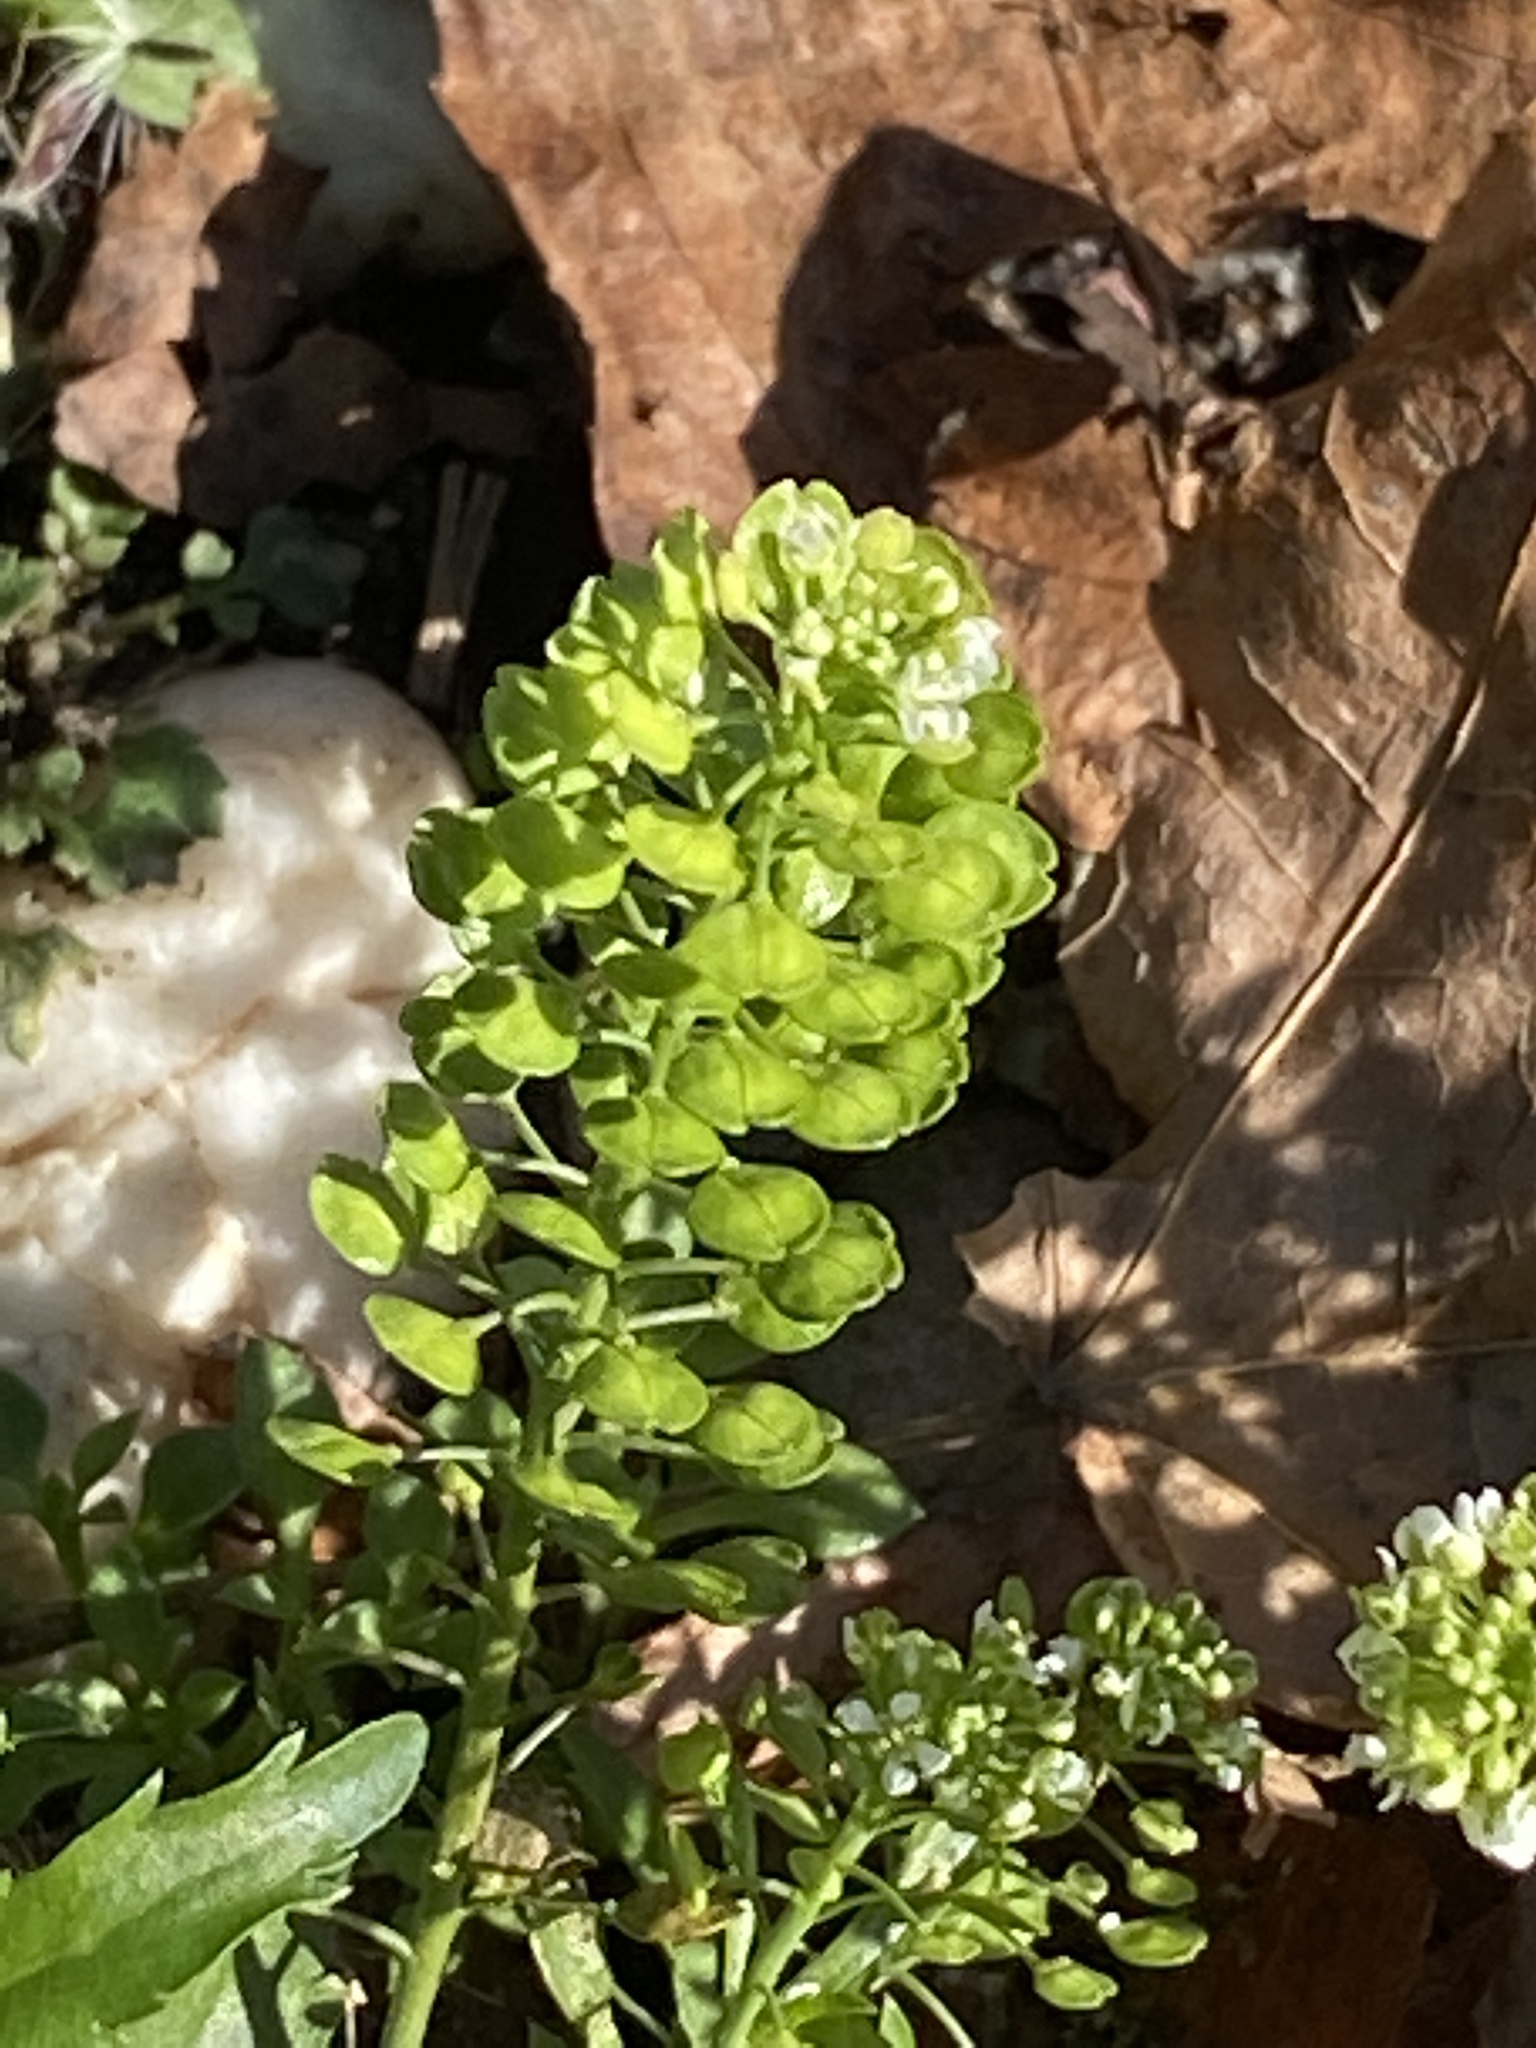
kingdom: Plantae
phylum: Tracheophyta
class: Magnoliopsida
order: Brassicales
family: Brassicaceae
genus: Lepidium
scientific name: Lepidium virginicum
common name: Least pepperwort
